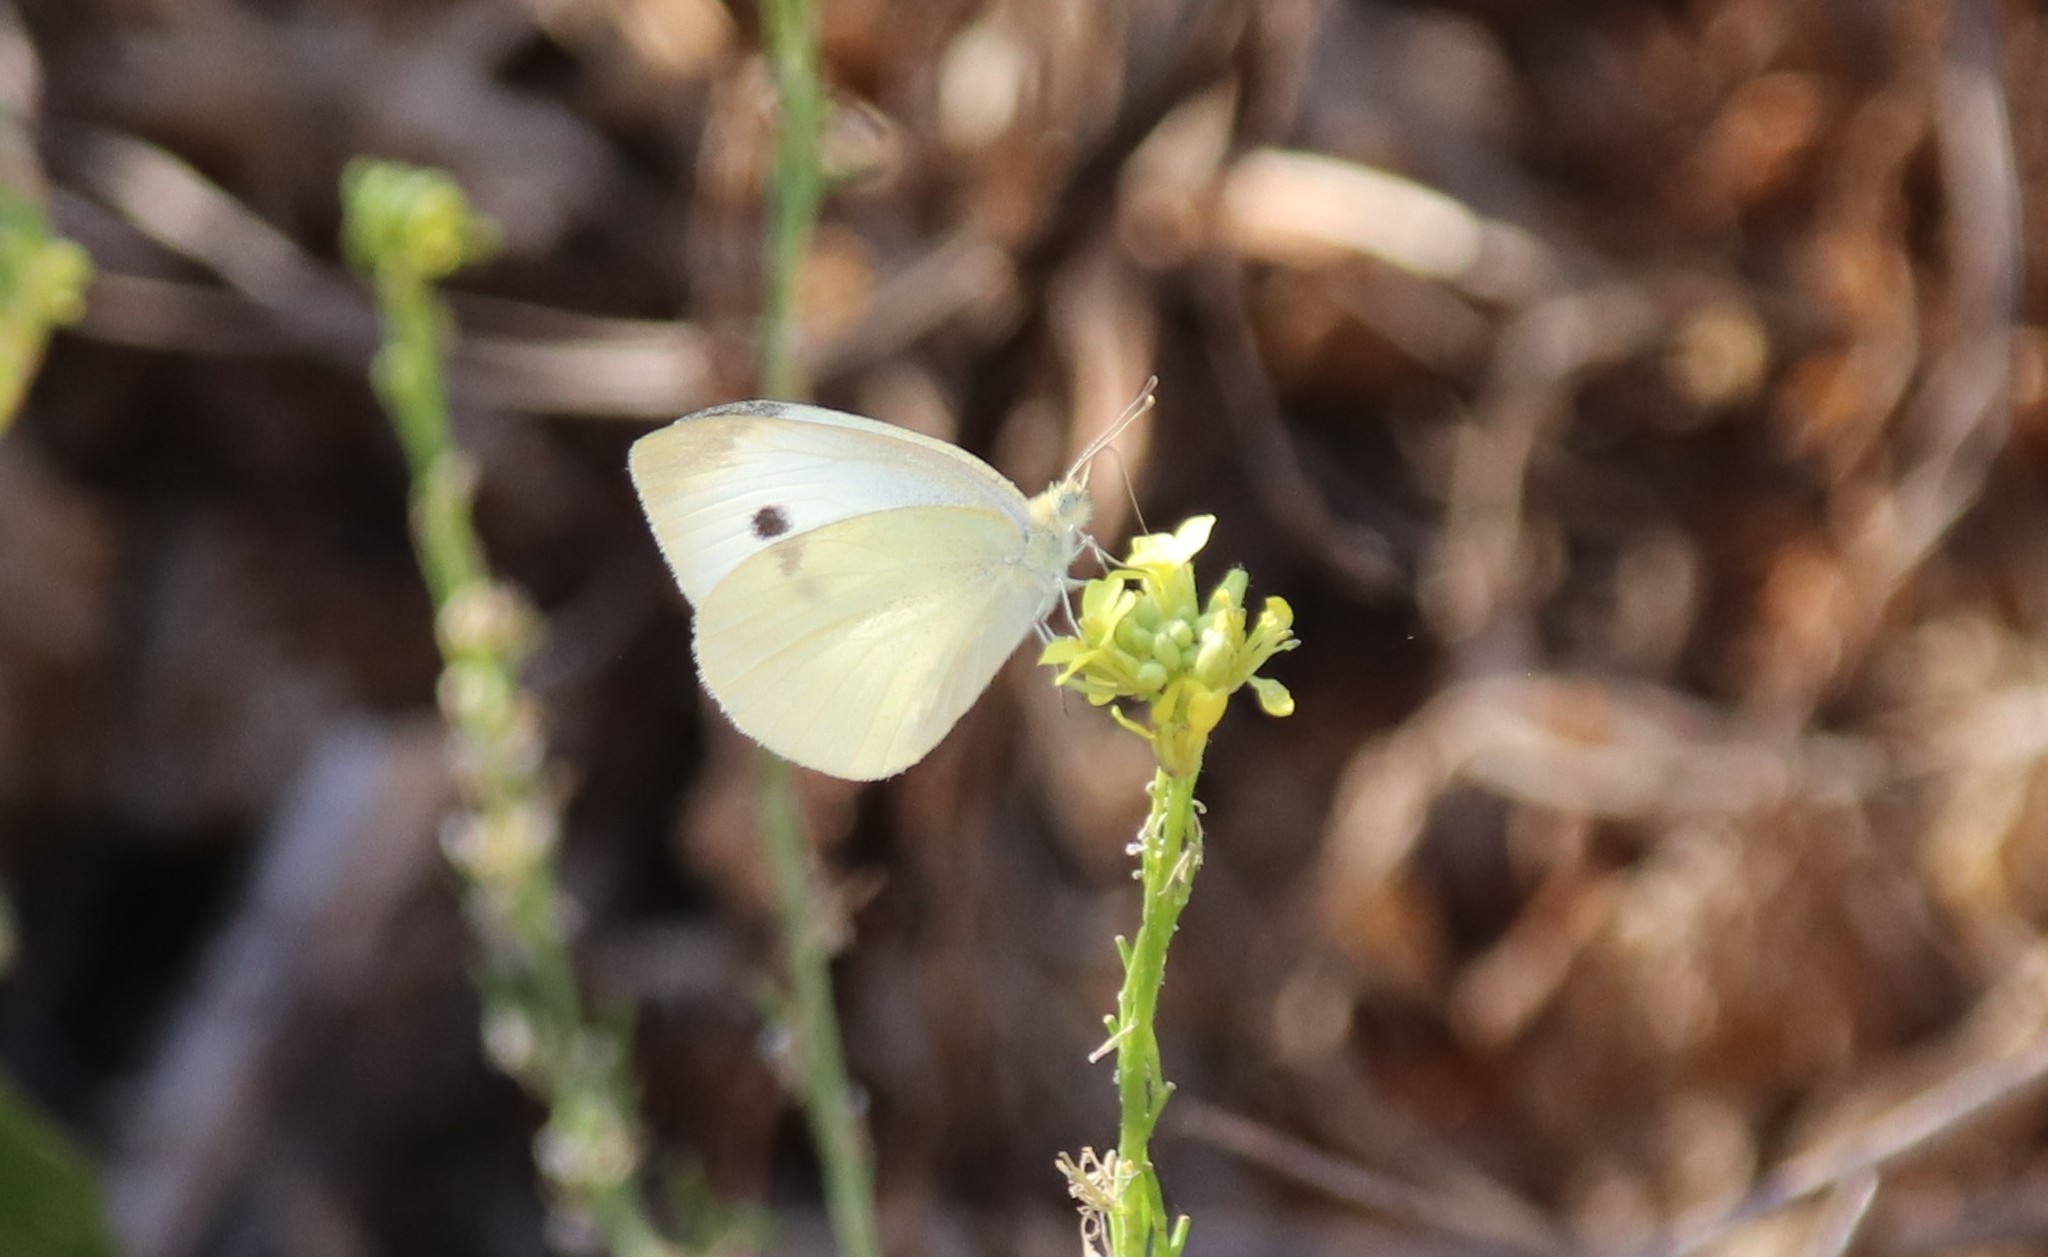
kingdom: Animalia
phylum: Arthropoda
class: Insecta
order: Lepidoptera
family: Pieridae
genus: Pieris
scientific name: Pieris rapae
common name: Small white
